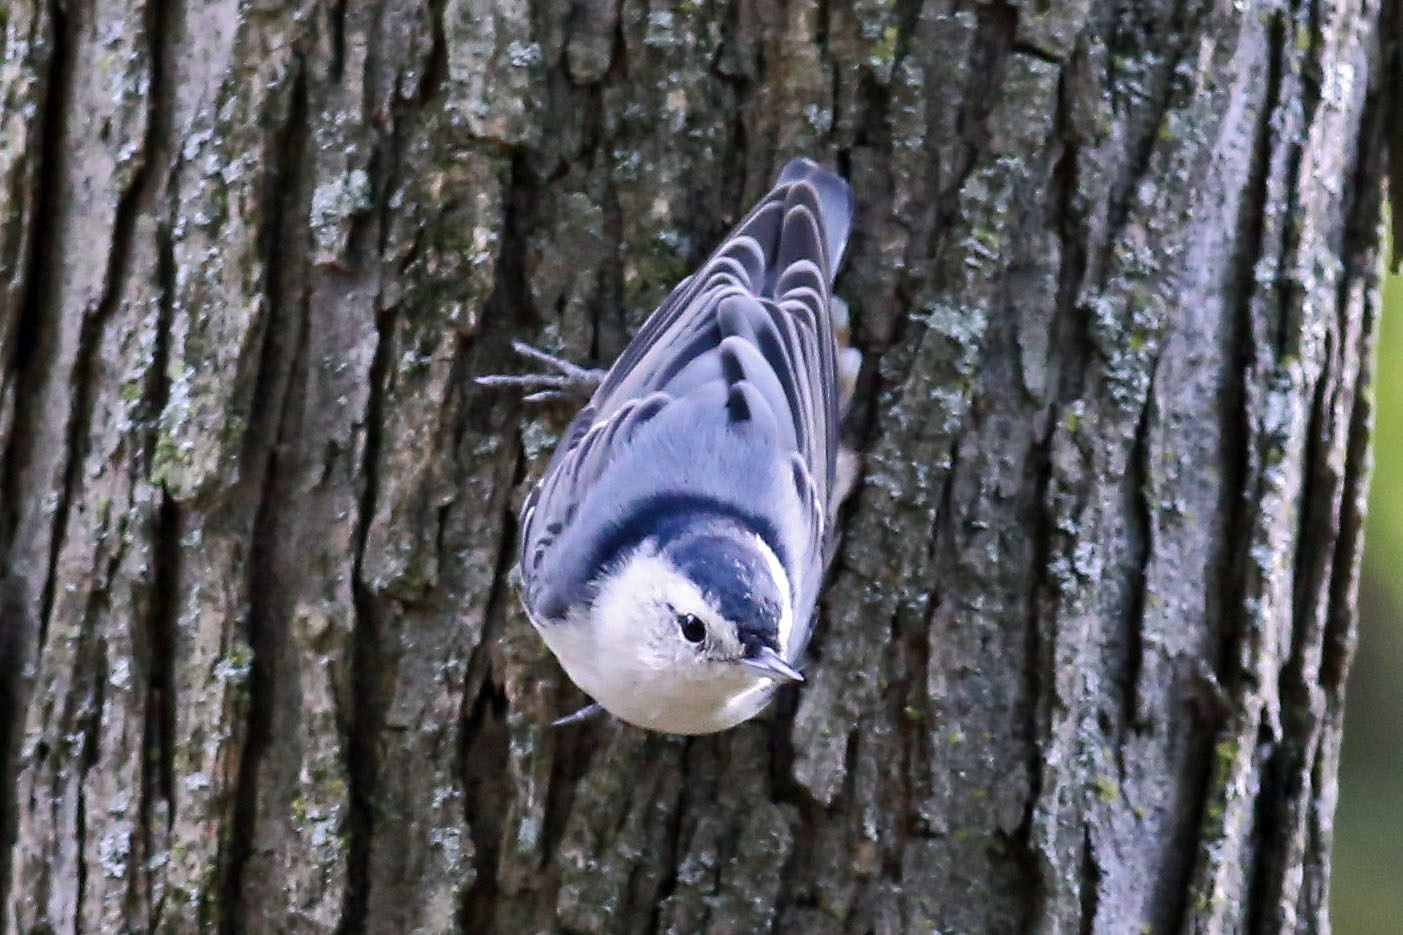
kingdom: Animalia
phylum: Chordata
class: Aves
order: Passeriformes
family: Sittidae
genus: Sitta
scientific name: Sitta carolinensis
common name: White-breasted nuthatch
